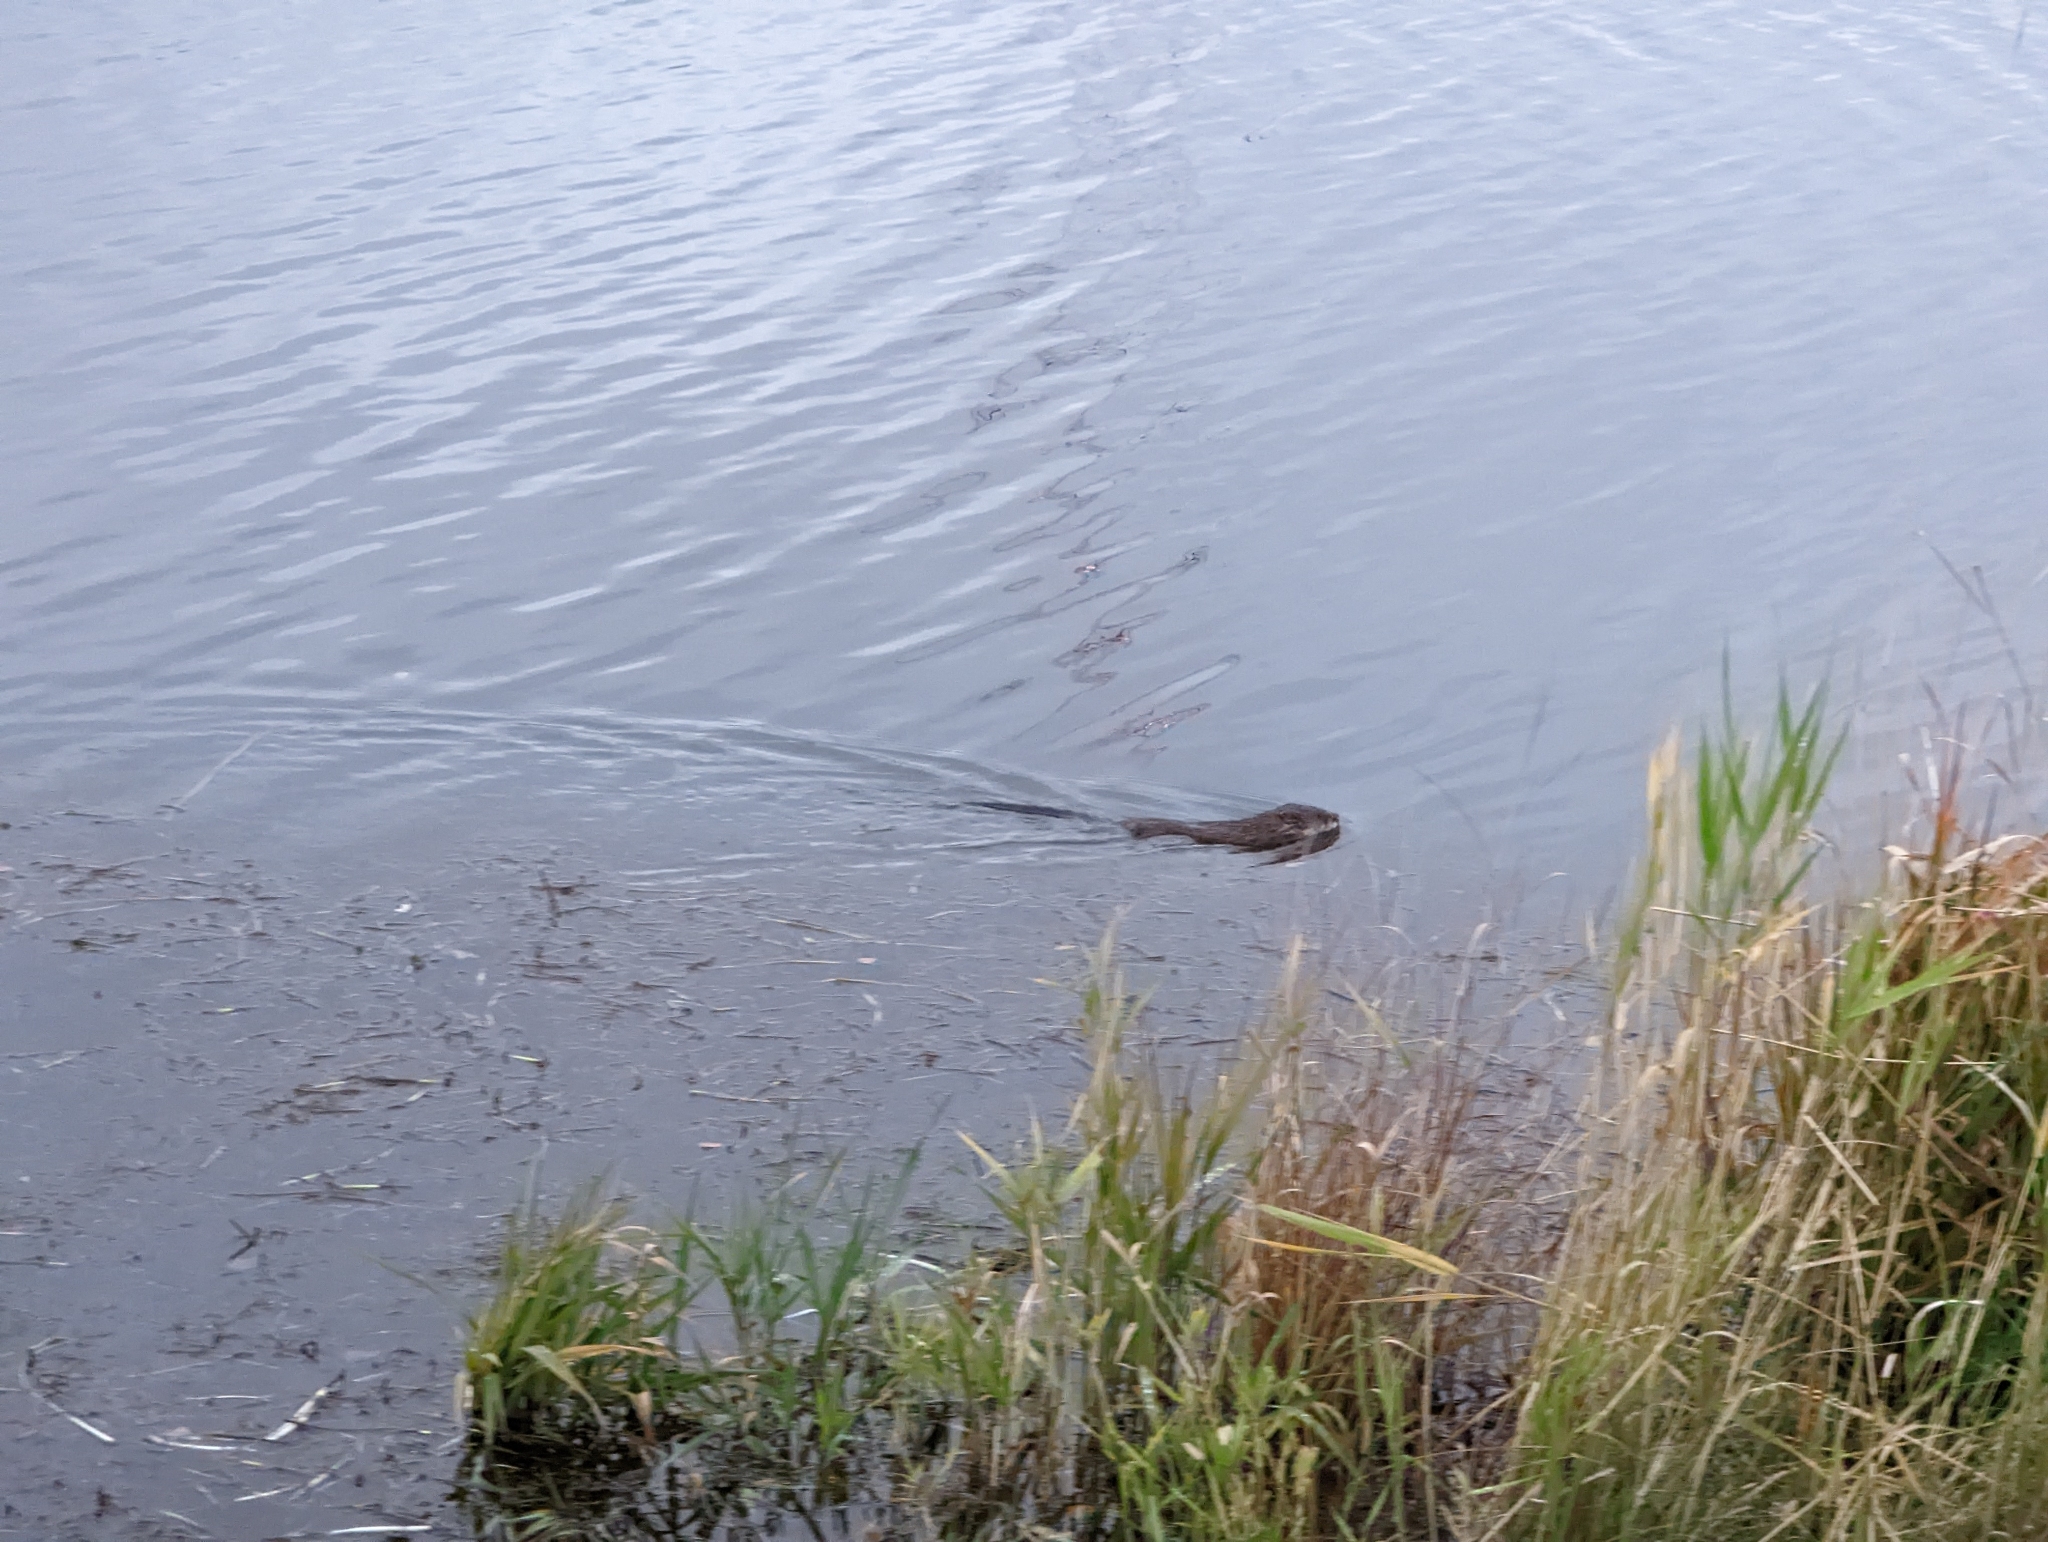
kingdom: Animalia
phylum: Chordata
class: Mammalia
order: Rodentia
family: Cricetidae
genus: Ondatra
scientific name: Ondatra zibethicus
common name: Muskrat
